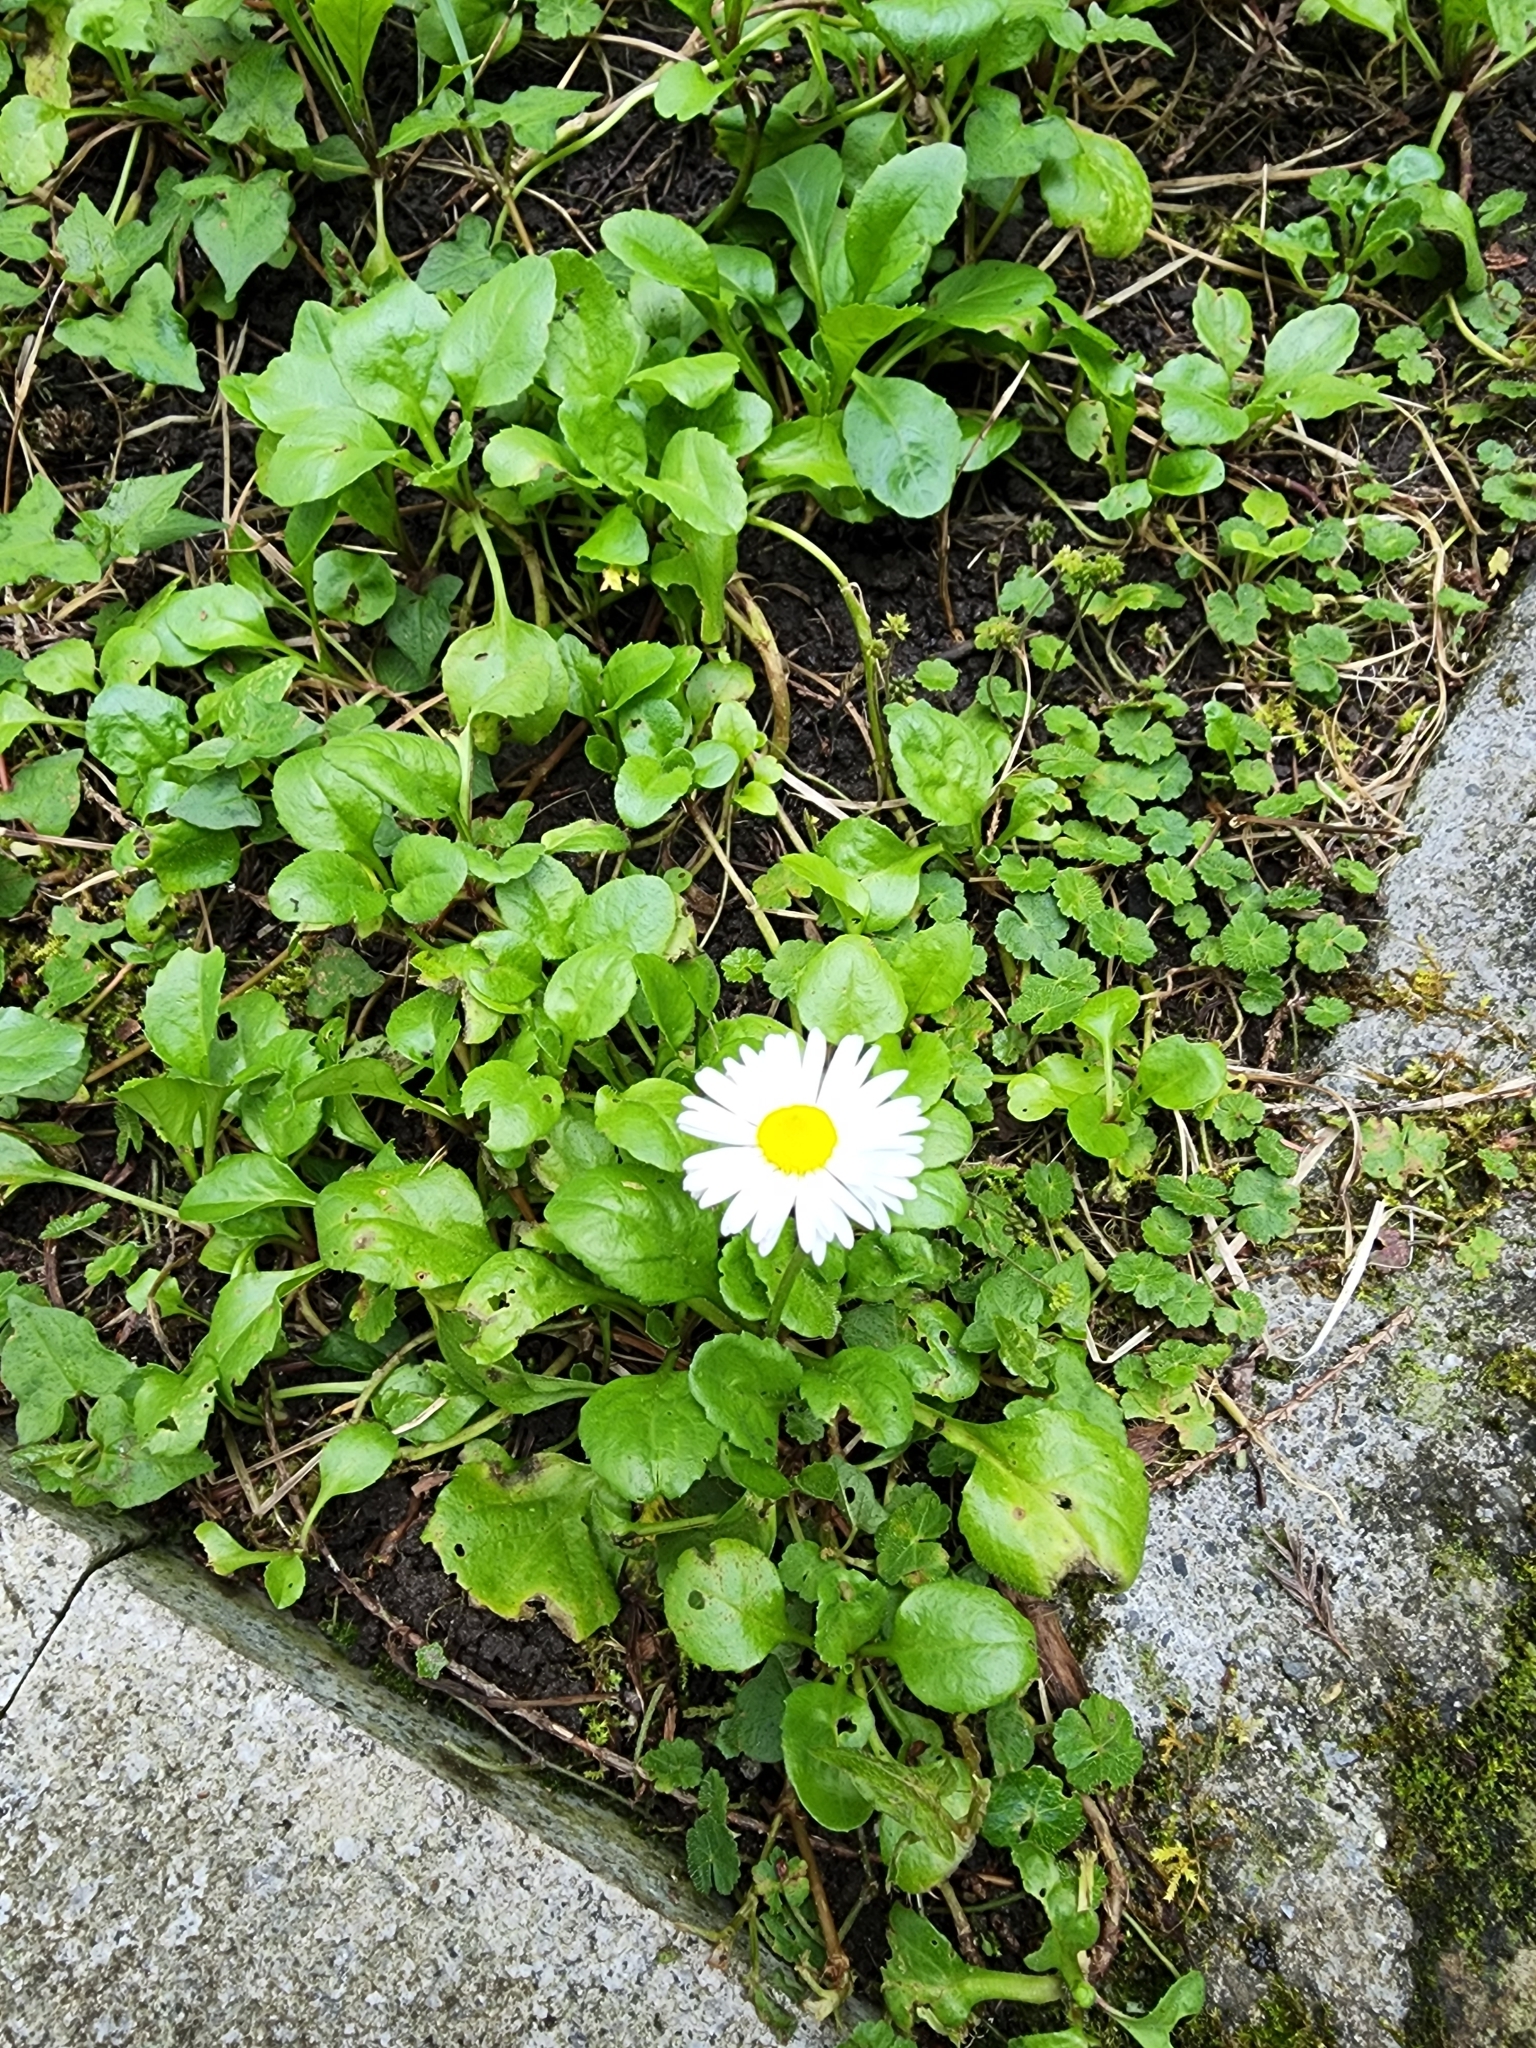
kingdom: Plantae
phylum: Tracheophyta
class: Magnoliopsida
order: Asterales
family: Asteraceae
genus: Bellis
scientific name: Bellis perennis
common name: Lawndaisy
